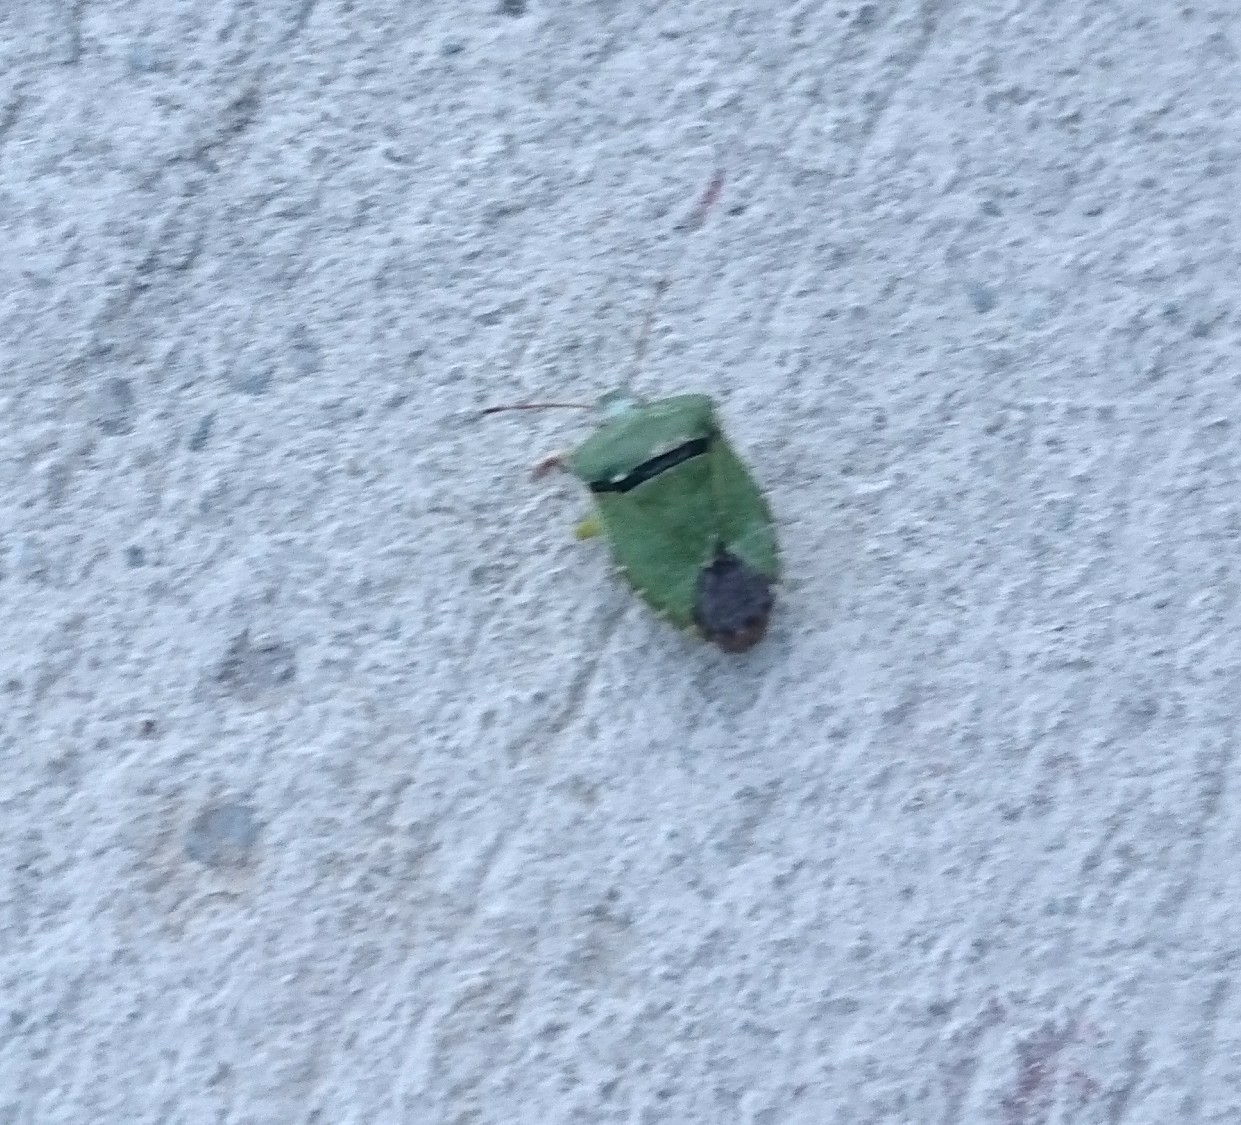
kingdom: Animalia
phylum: Arthropoda
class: Insecta
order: Hemiptera
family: Pentatomidae
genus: Palomena
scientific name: Palomena prasina
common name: Green shieldbug
